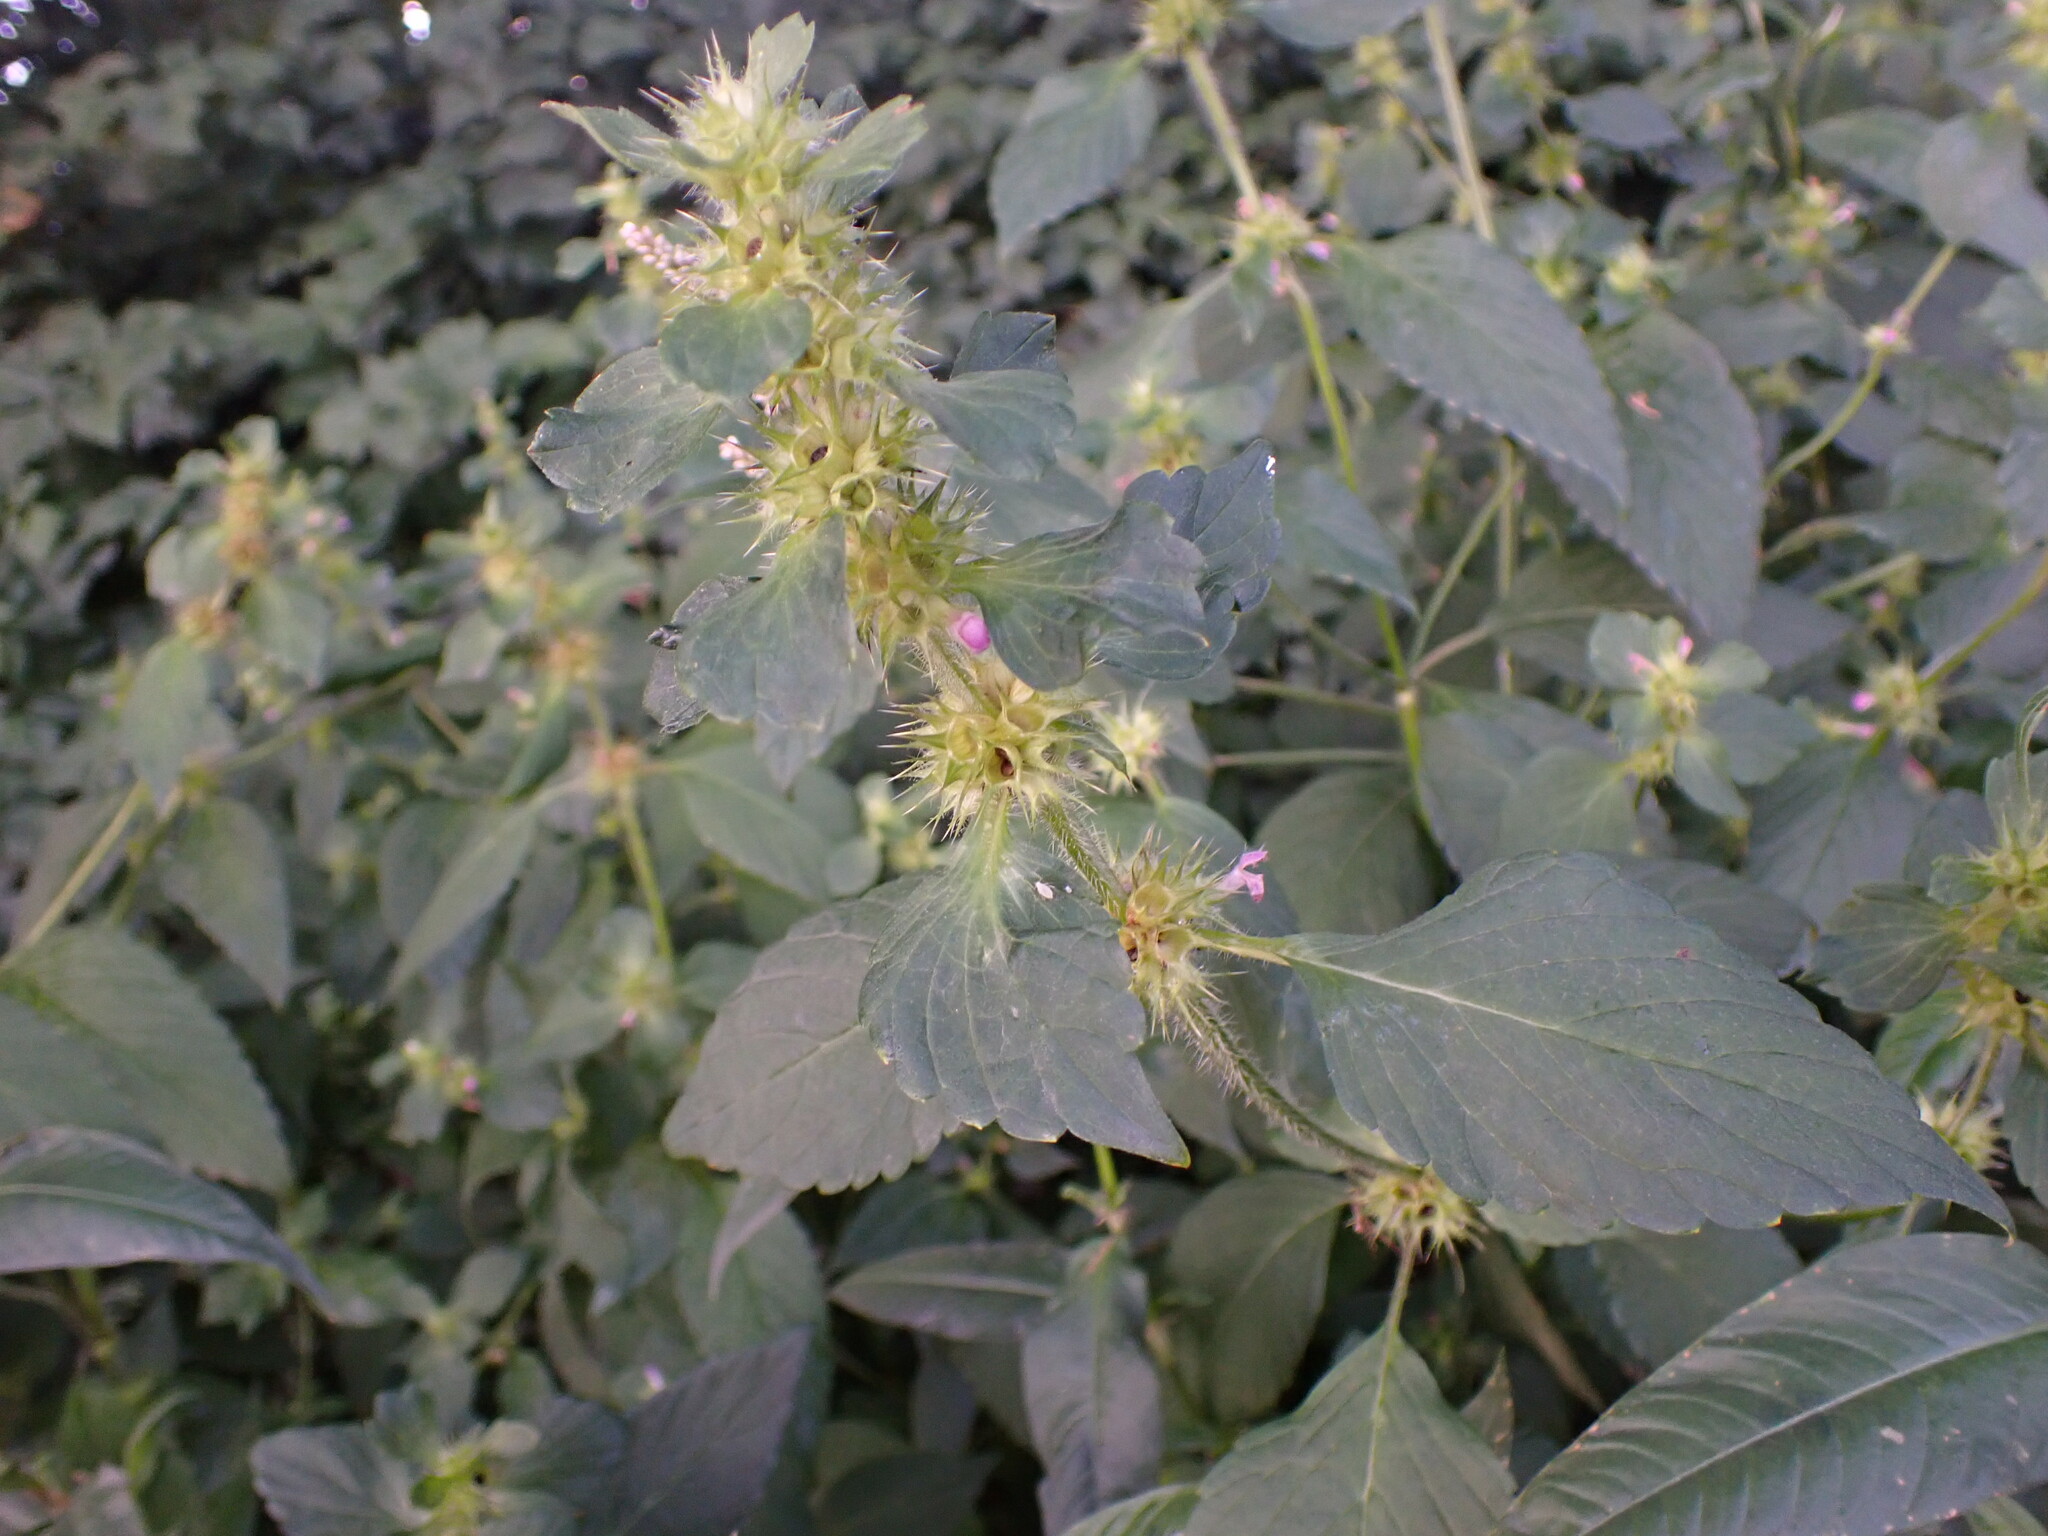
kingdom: Plantae
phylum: Tracheophyta
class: Magnoliopsida
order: Lamiales
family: Lamiaceae
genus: Galeopsis
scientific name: Galeopsis tetrahit
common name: Common hemp-nettle
